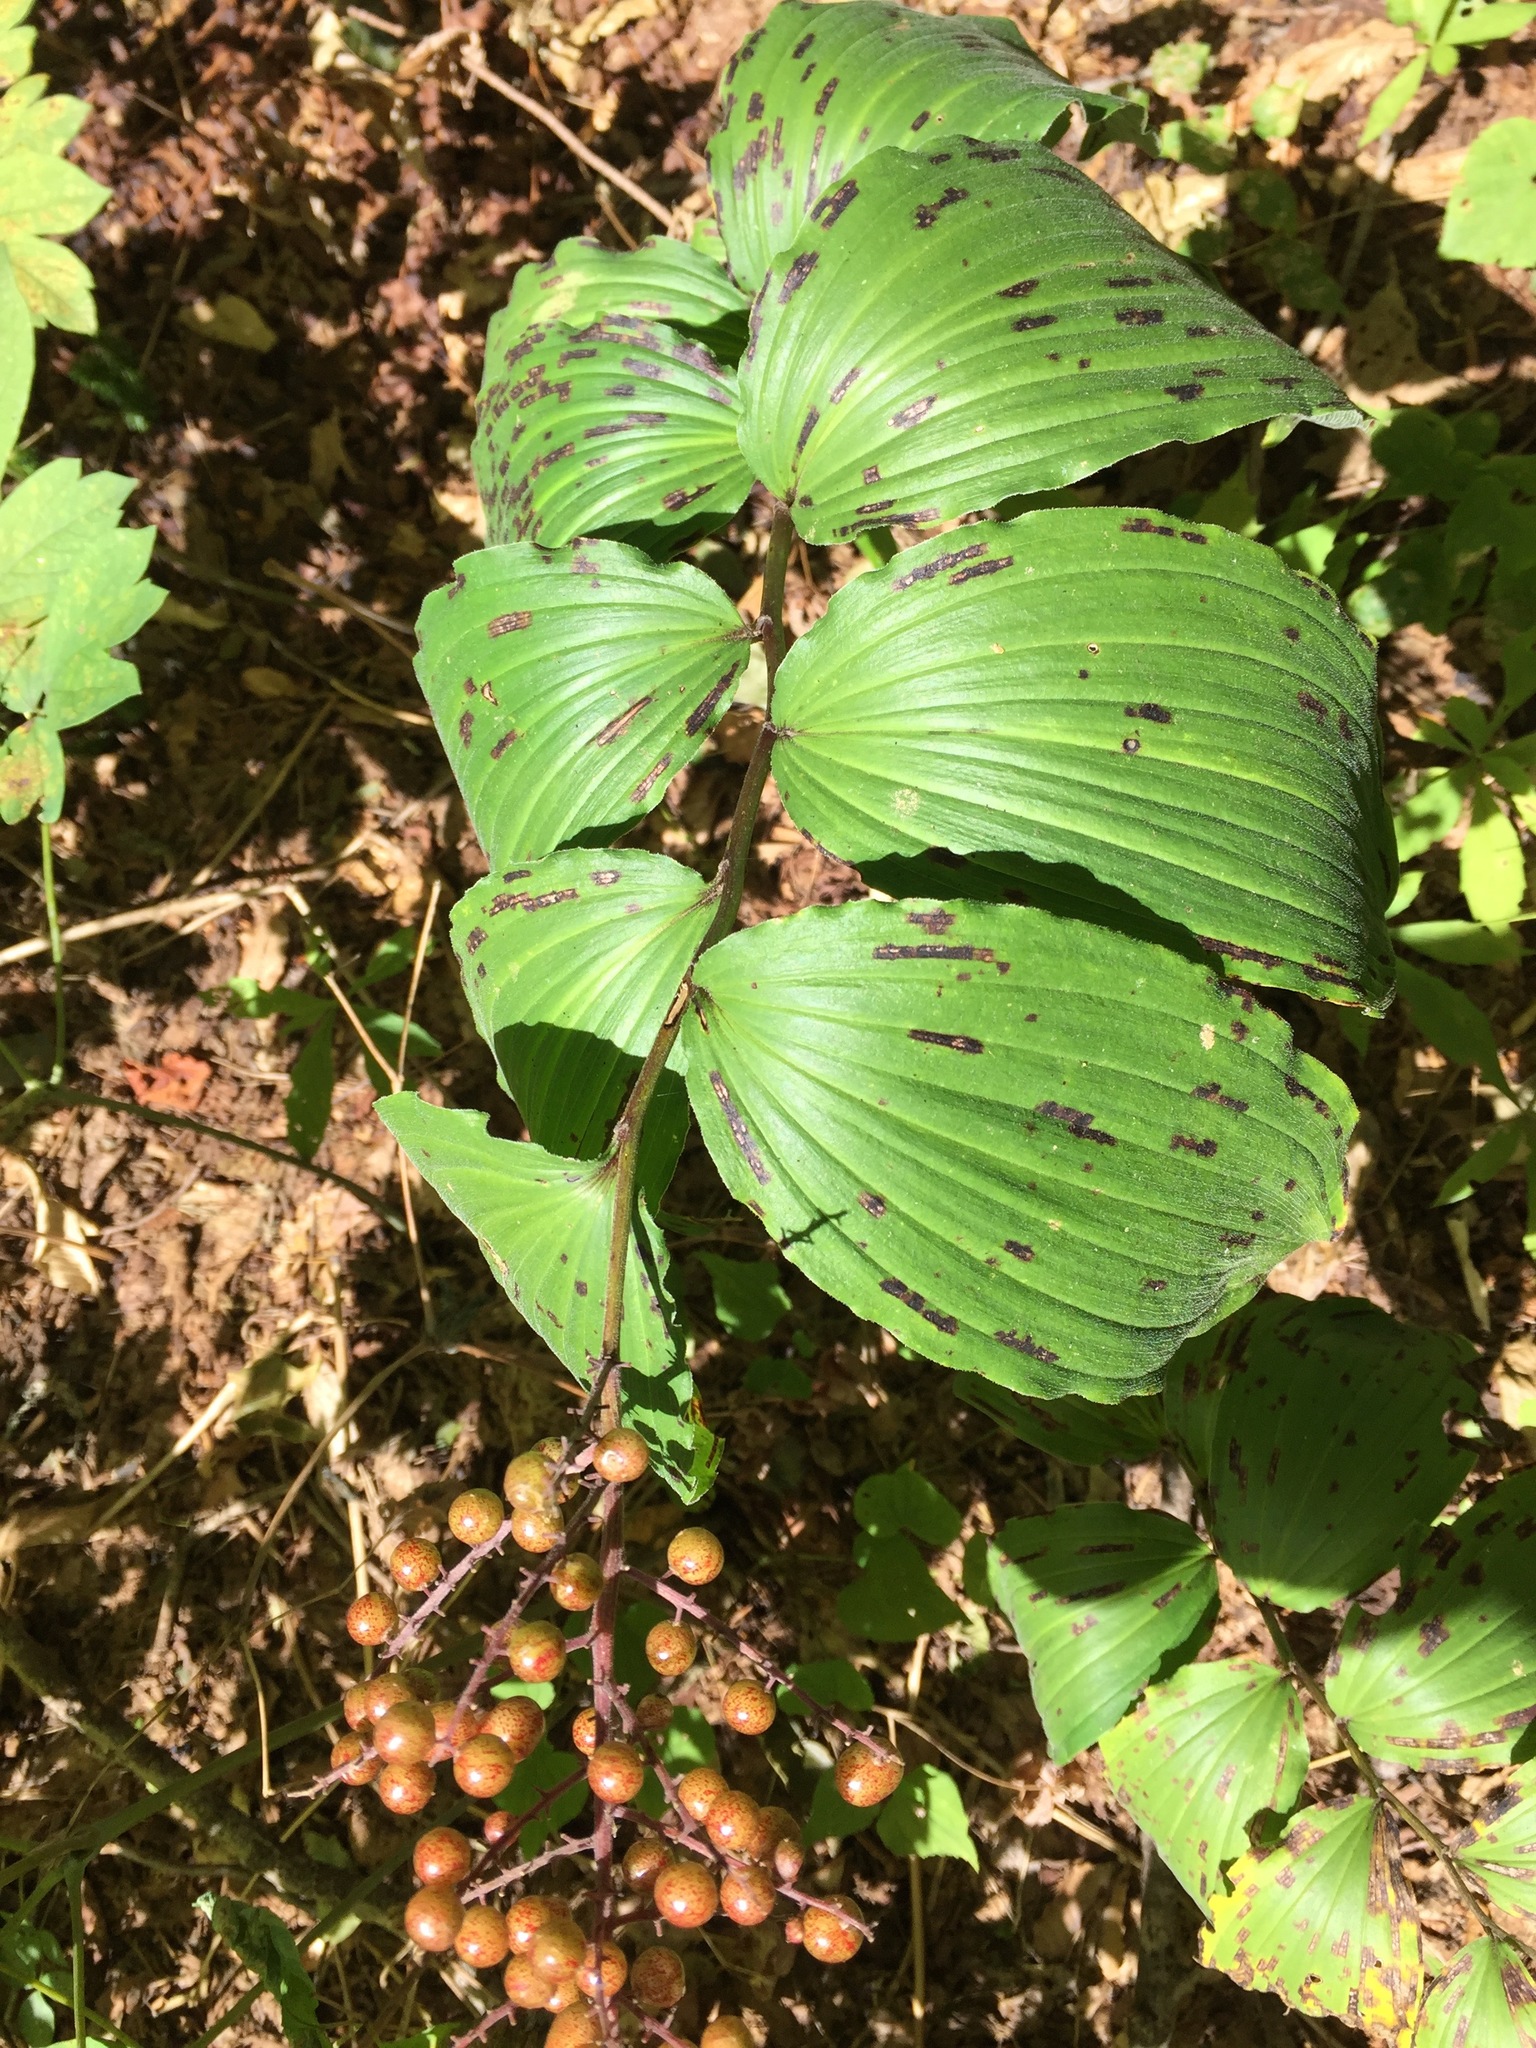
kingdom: Plantae
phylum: Tracheophyta
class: Liliopsida
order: Asparagales
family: Asparagaceae
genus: Maianthemum
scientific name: Maianthemum racemosum
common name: False spikenard
